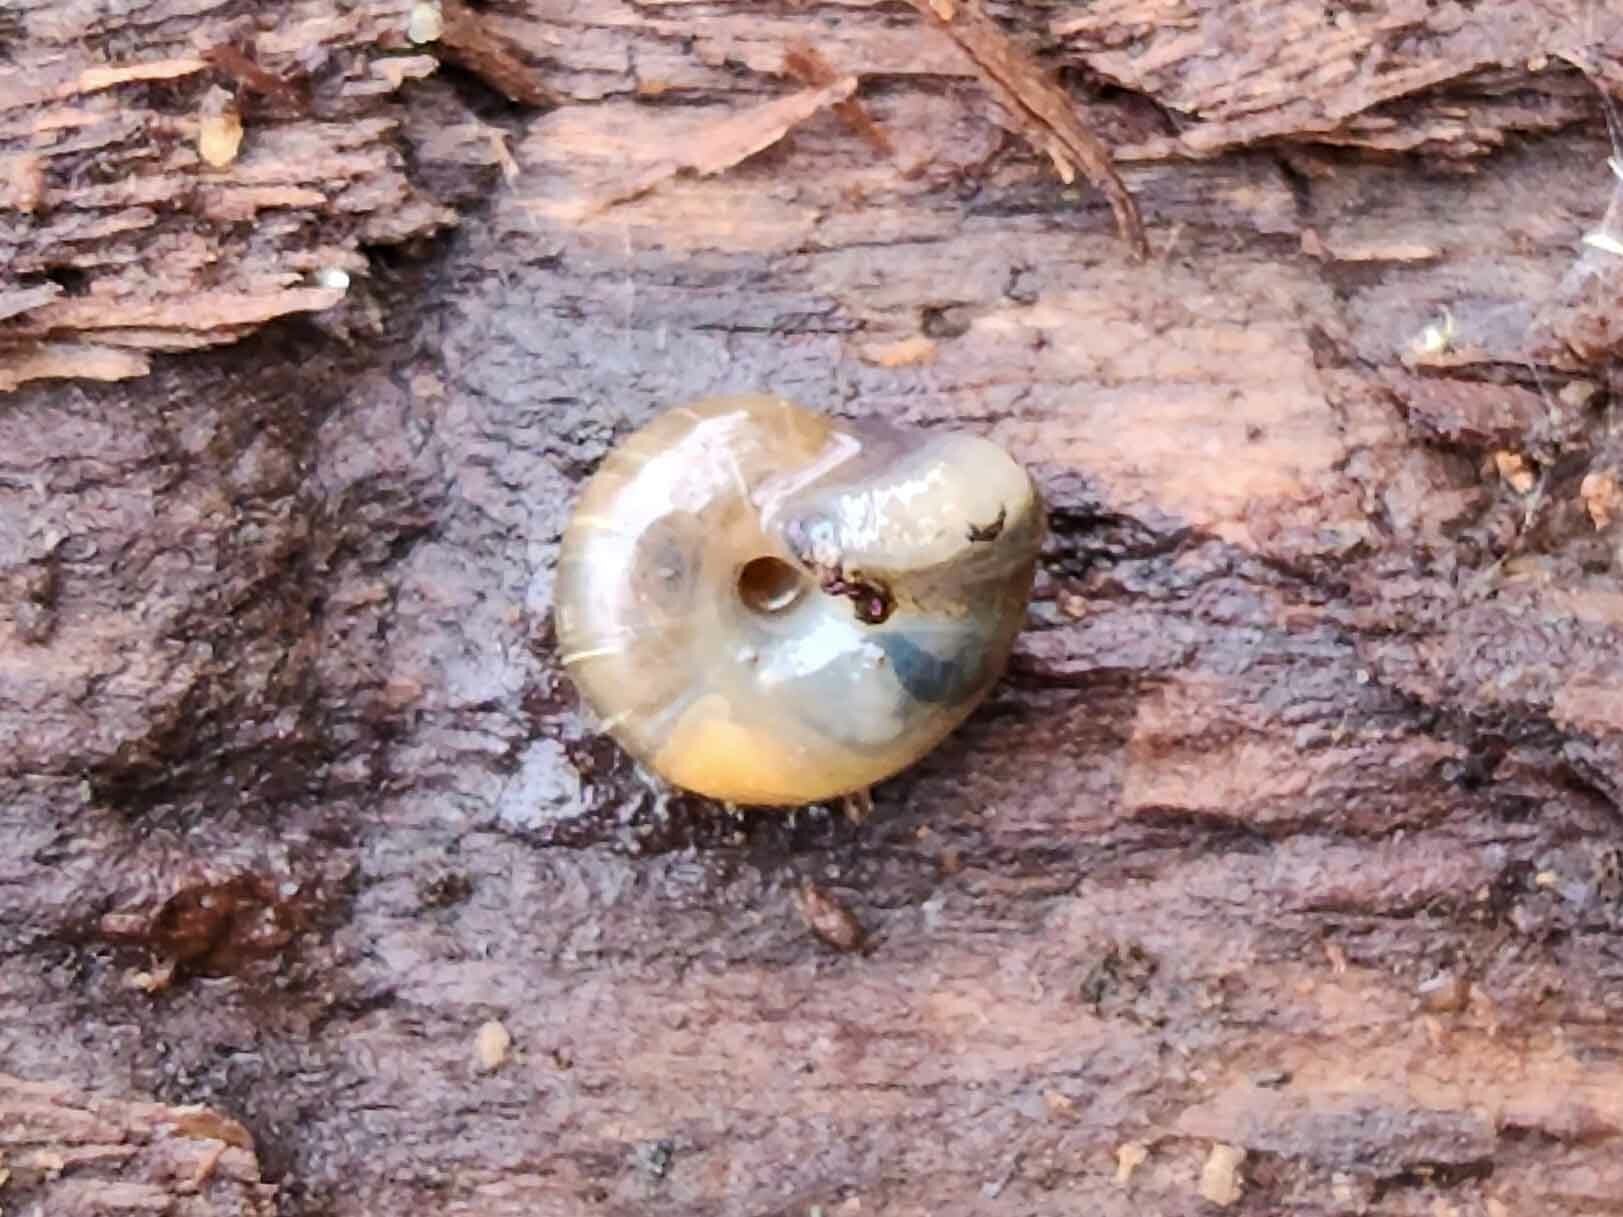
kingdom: Animalia
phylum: Mollusca
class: Gastropoda
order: Stylommatophora
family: Oxychilidae
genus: Oxychilus
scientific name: Oxychilus alliarius
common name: Garlic glass-snail
